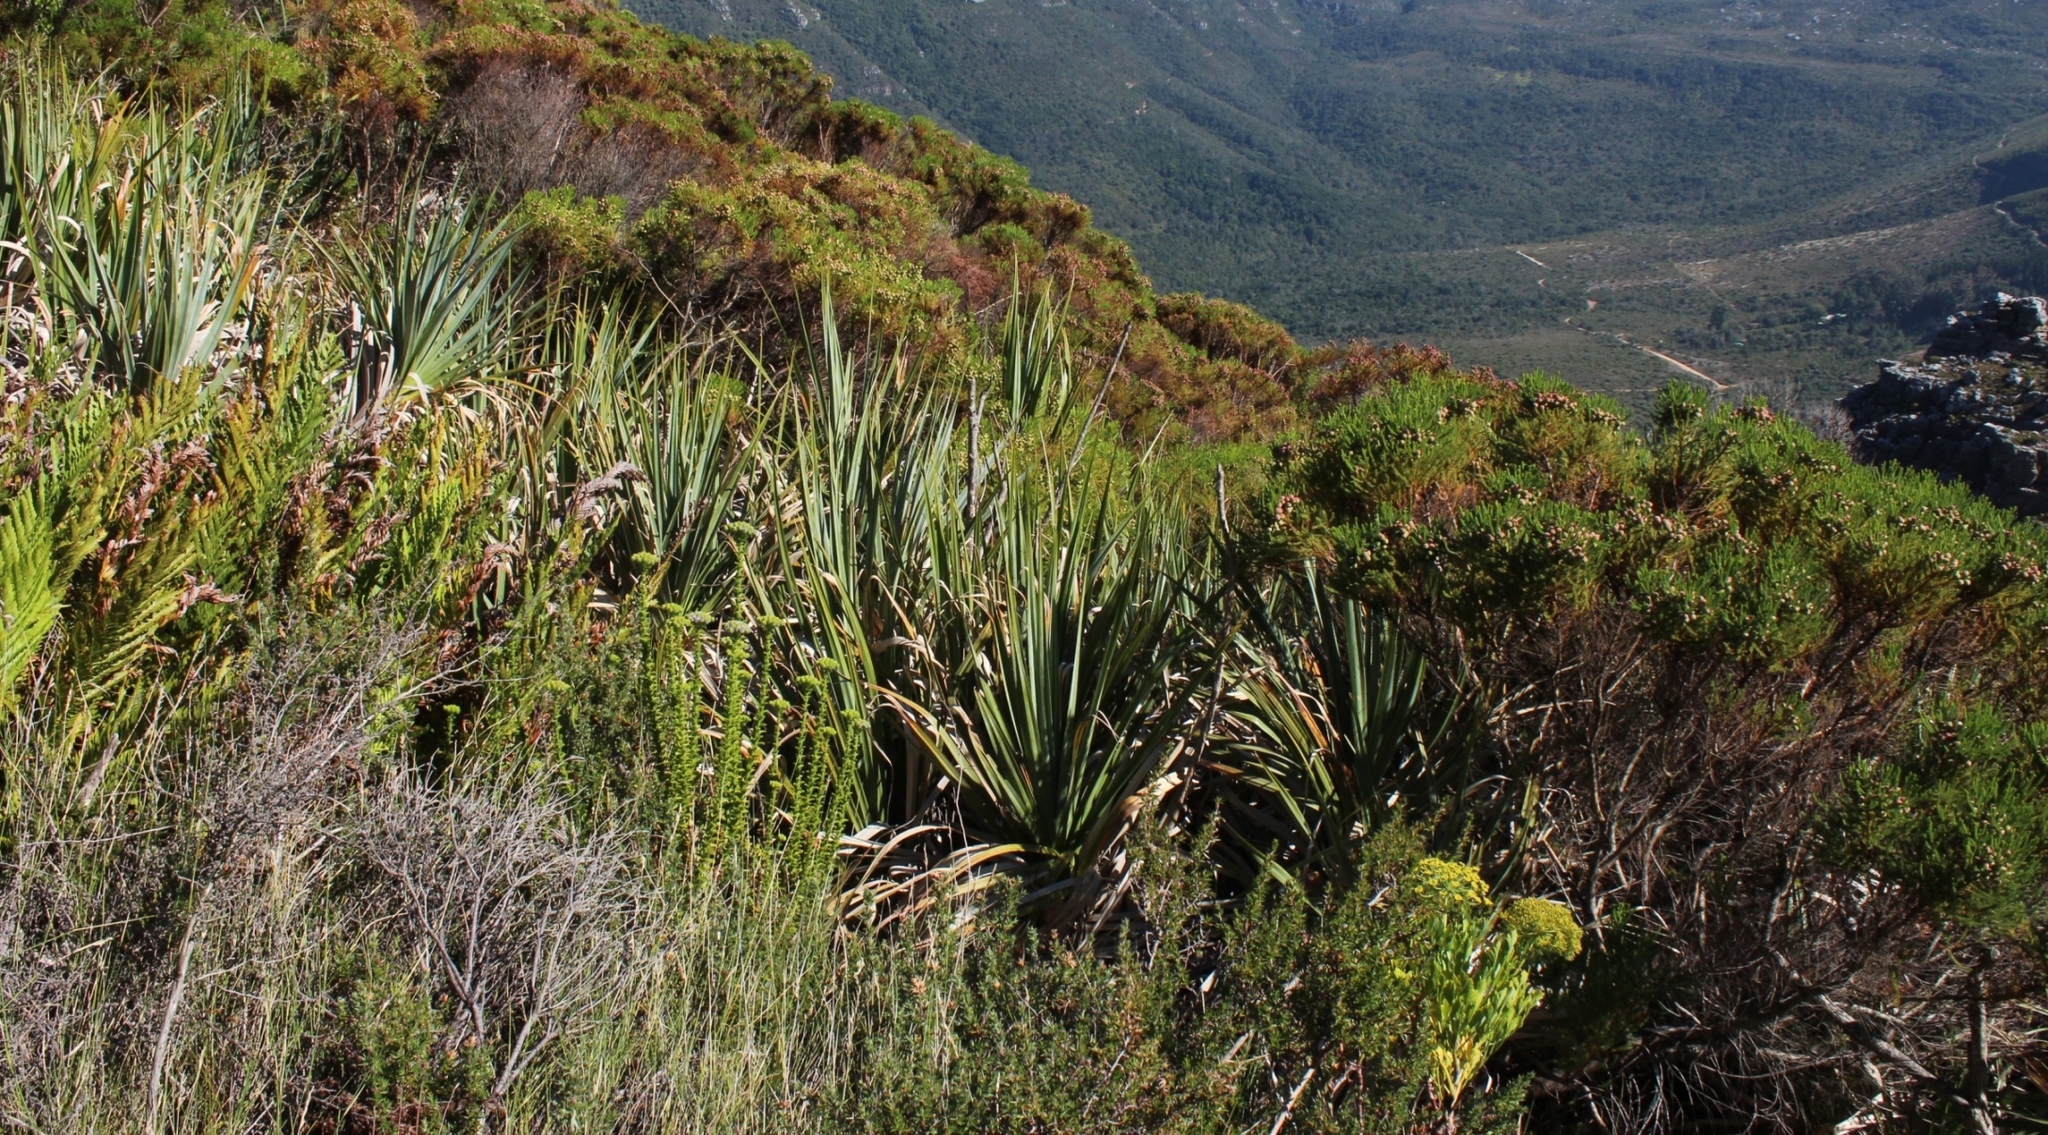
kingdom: Plantae
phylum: Tracheophyta
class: Liliopsida
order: Poales
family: Thurniaceae
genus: Prionium
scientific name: Prionium serratum
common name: Palmiet
